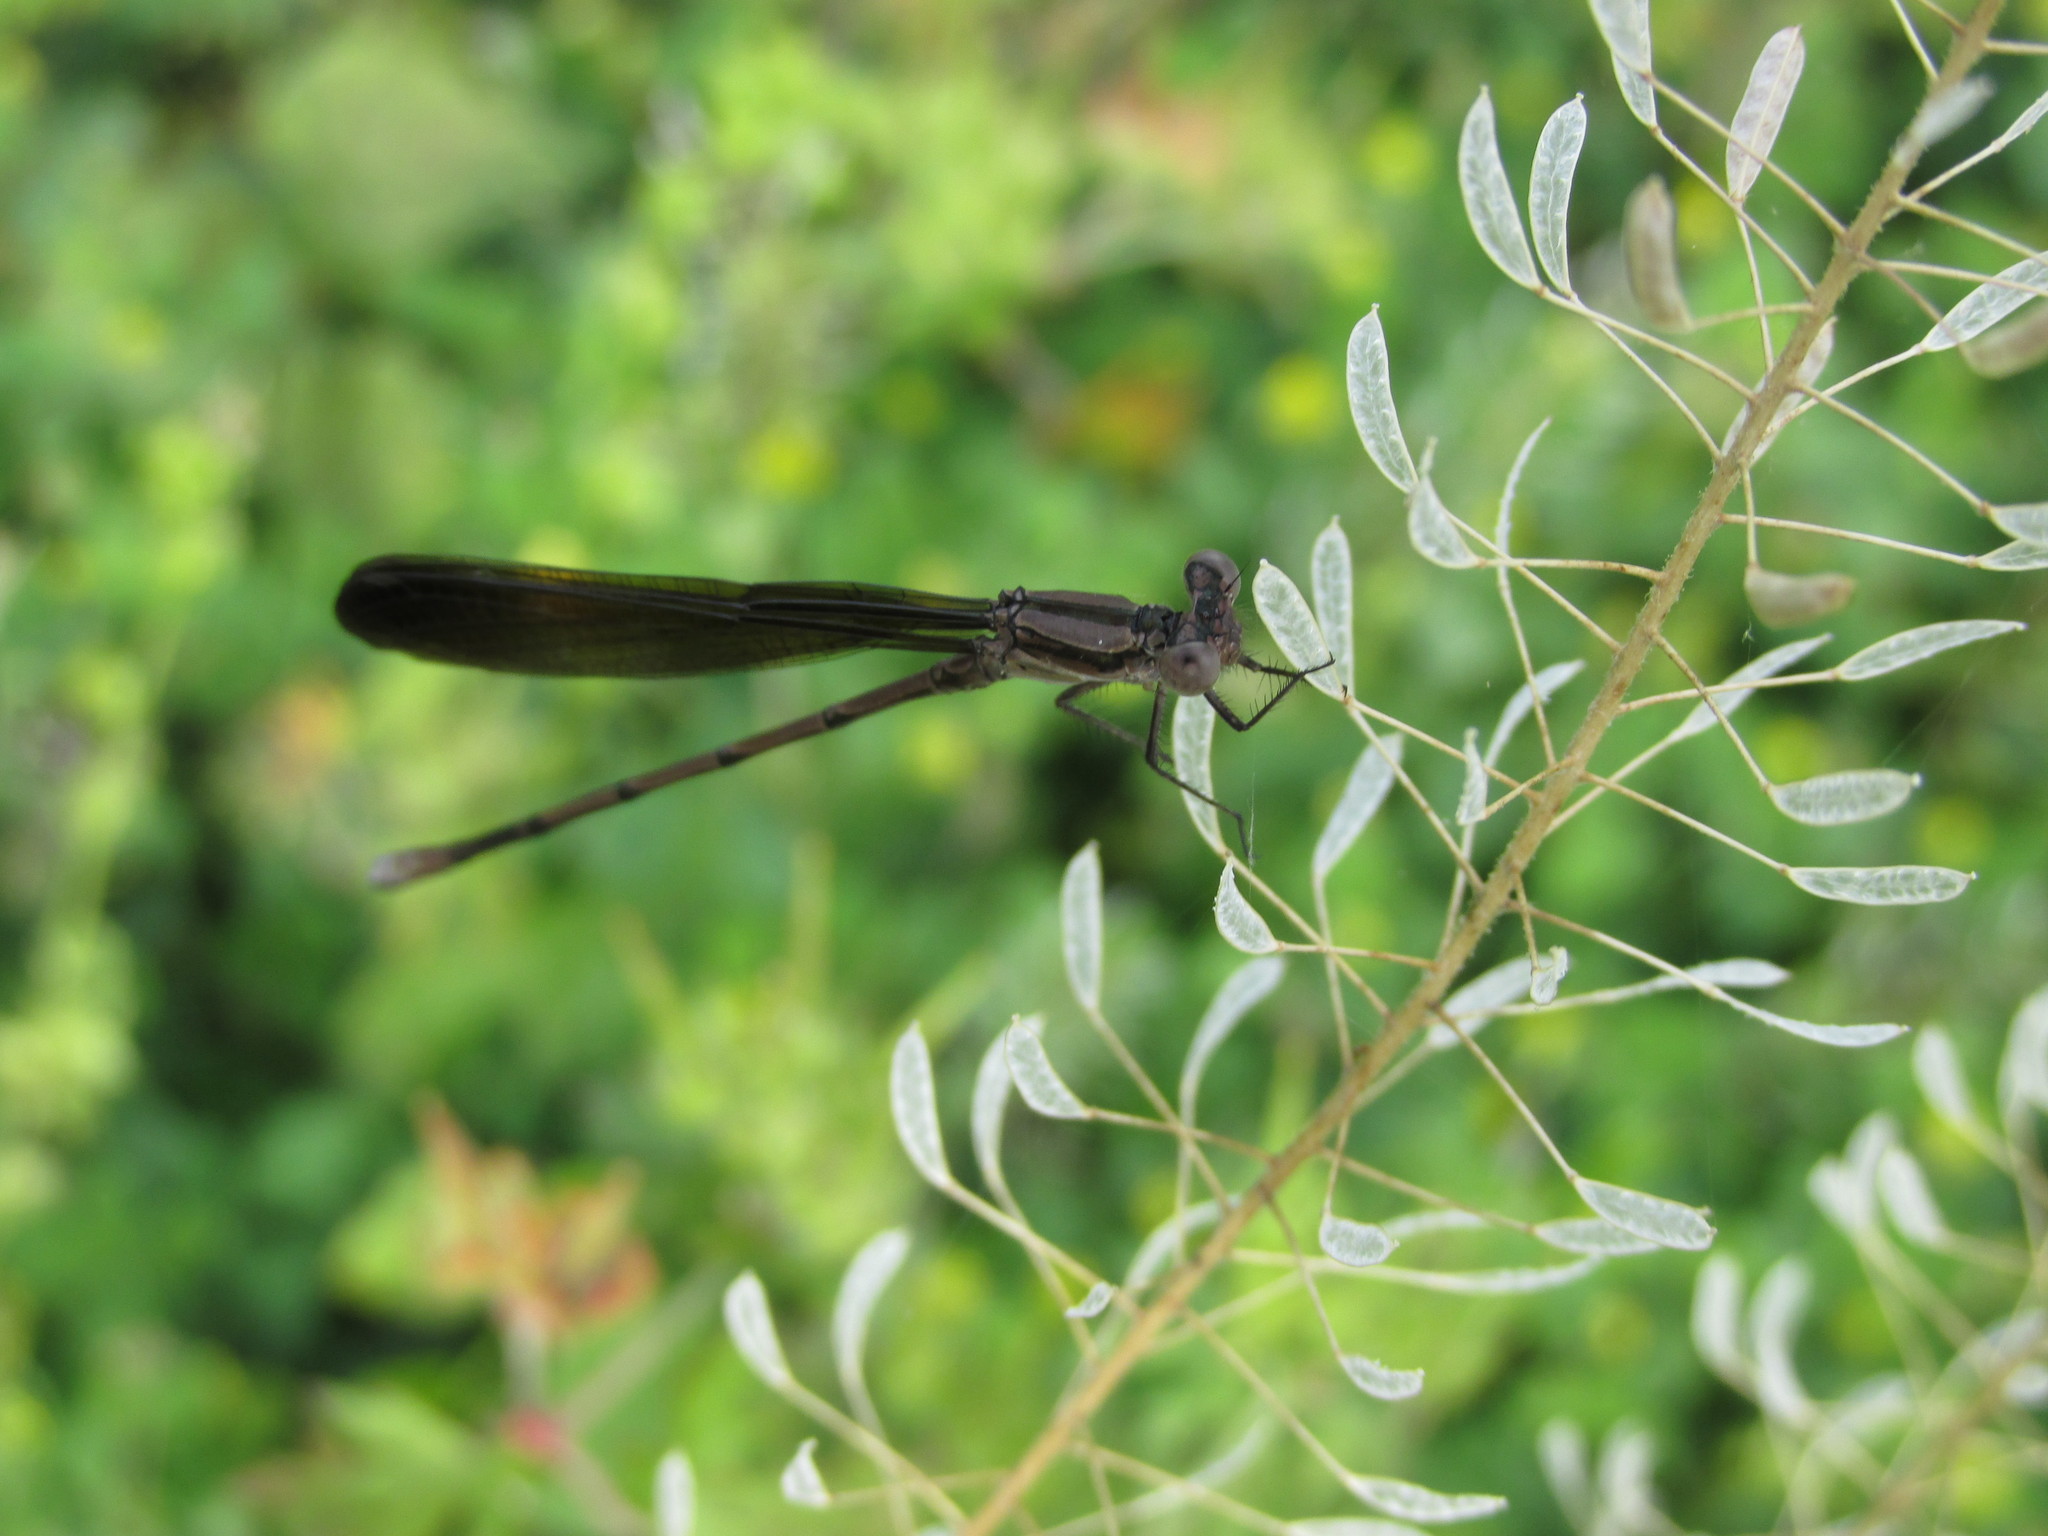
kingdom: Animalia
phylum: Arthropoda
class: Insecta
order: Odonata
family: Coenagrionidae
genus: Argia
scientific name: Argia fumipennis
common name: Variable dancer
